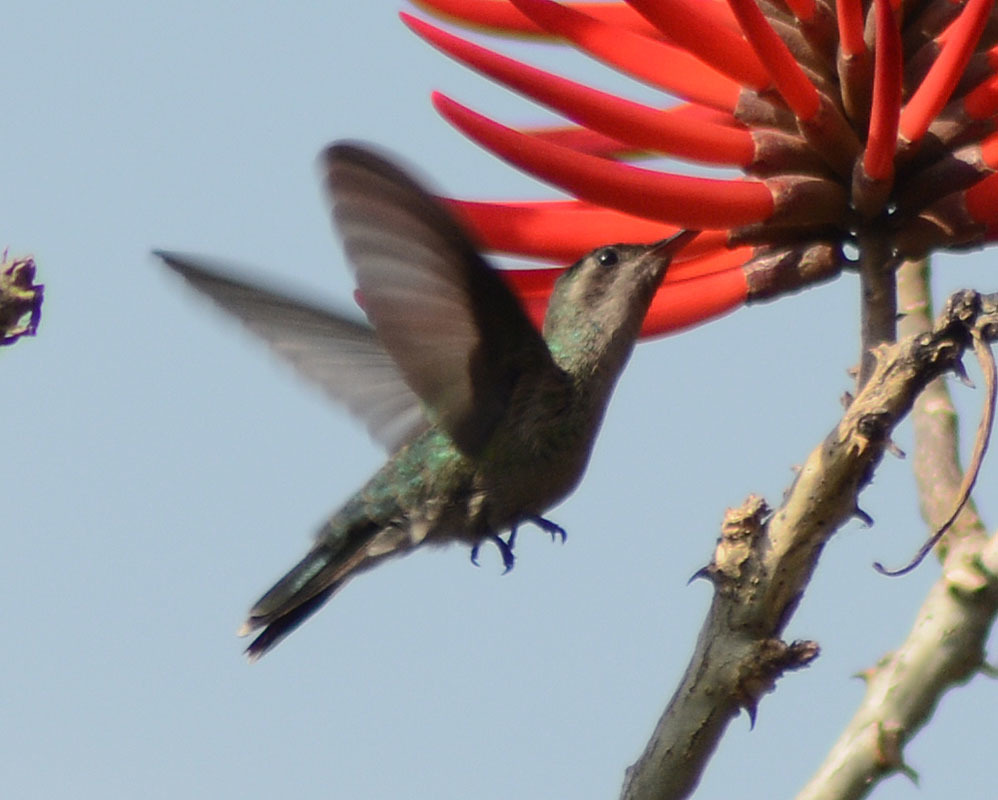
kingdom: Animalia
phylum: Chordata
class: Aves
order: Apodiformes
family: Trochilidae
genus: Cynanthus
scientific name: Cynanthus latirostris
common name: Broad-billed hummingbird
